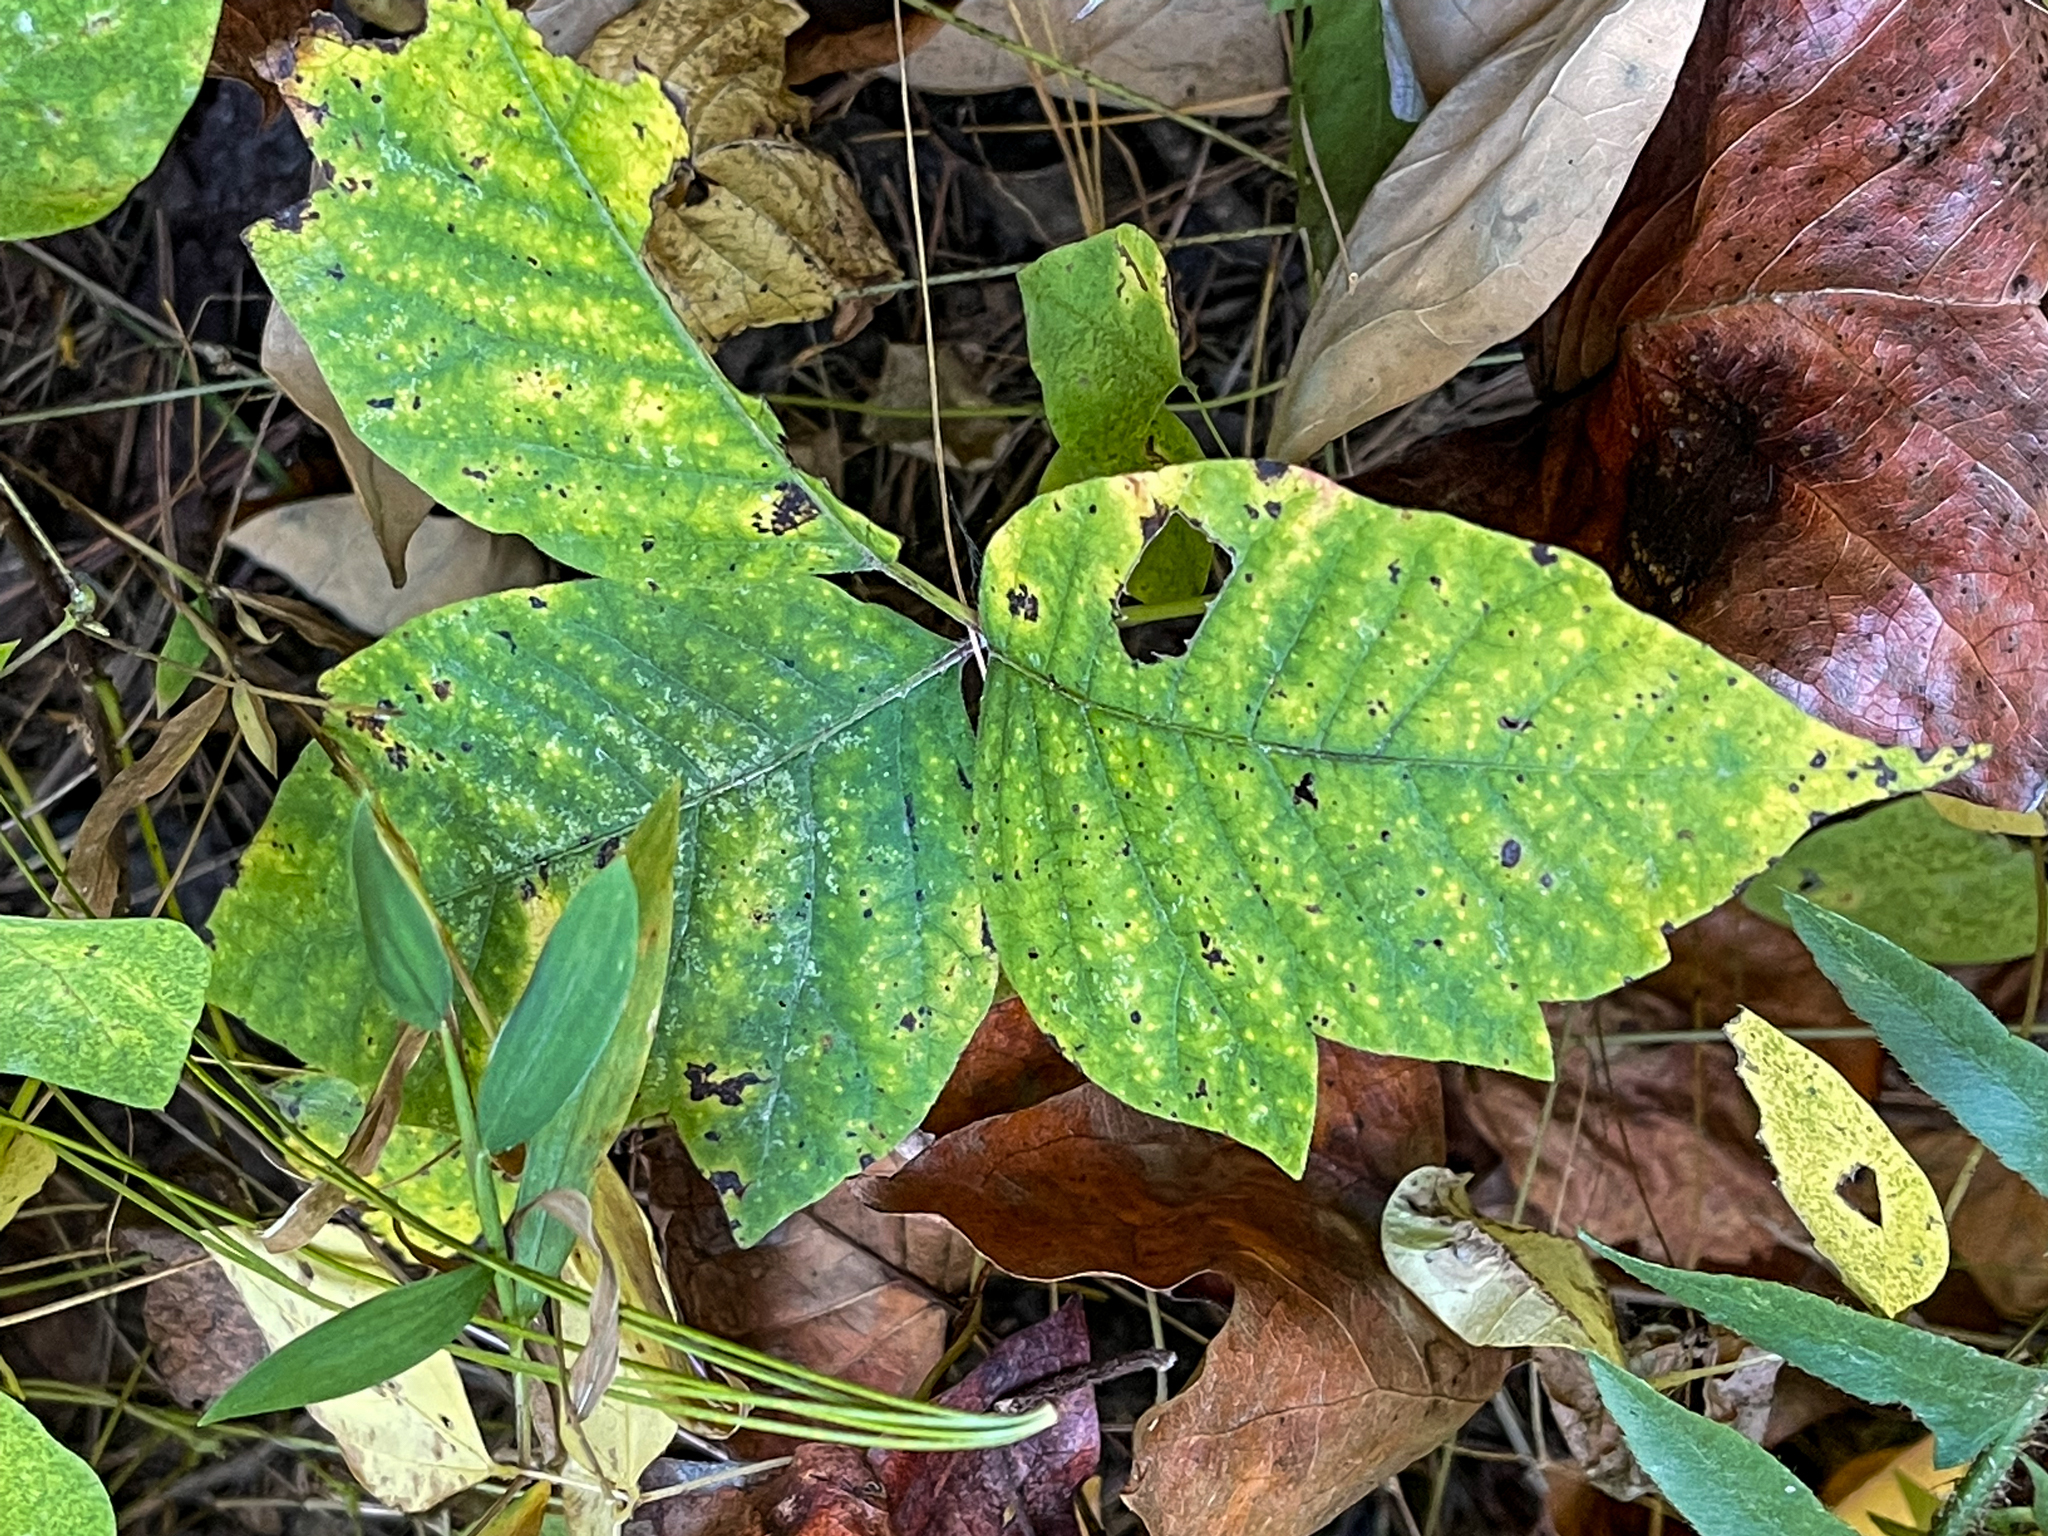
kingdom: Plantae
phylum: Tracheophyta
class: Magnoliopsida
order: Sapindales
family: Anacardiaceae
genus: Toxicodendron
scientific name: Toxicodendron radicans
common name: Poison ivy
